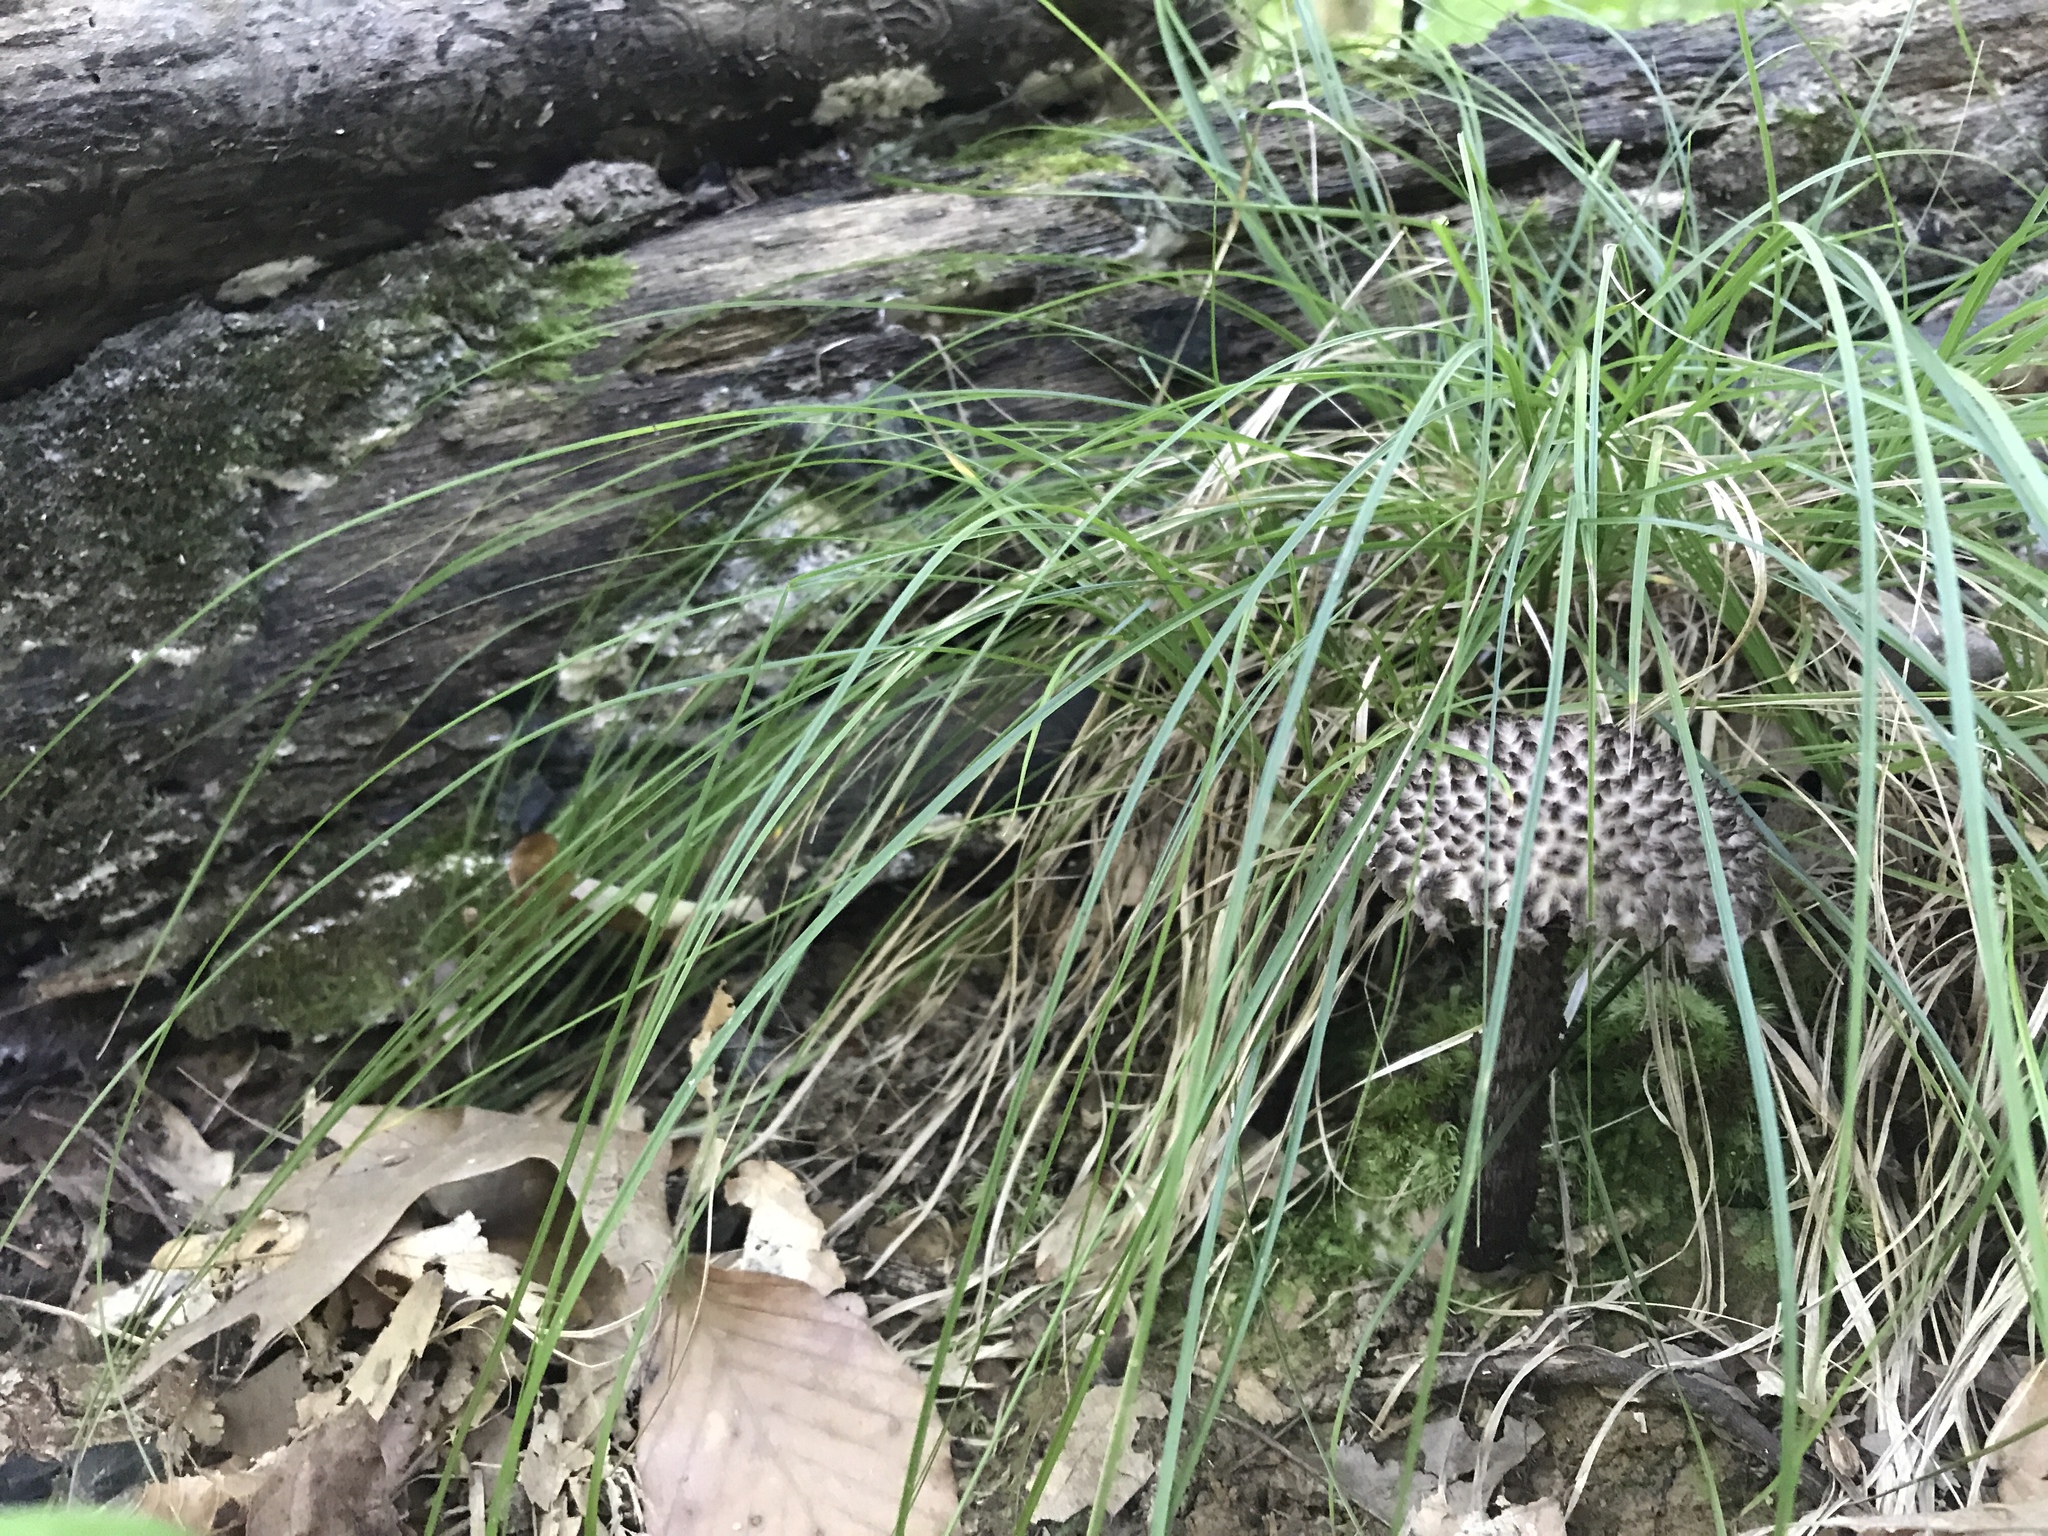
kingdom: Fungi
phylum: Basidiomycota
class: Agaricomycetes
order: Boletales
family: Boletaceae
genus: Strobilomyces
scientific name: Strobilomyces strobilaceus
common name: Old man of the woods
